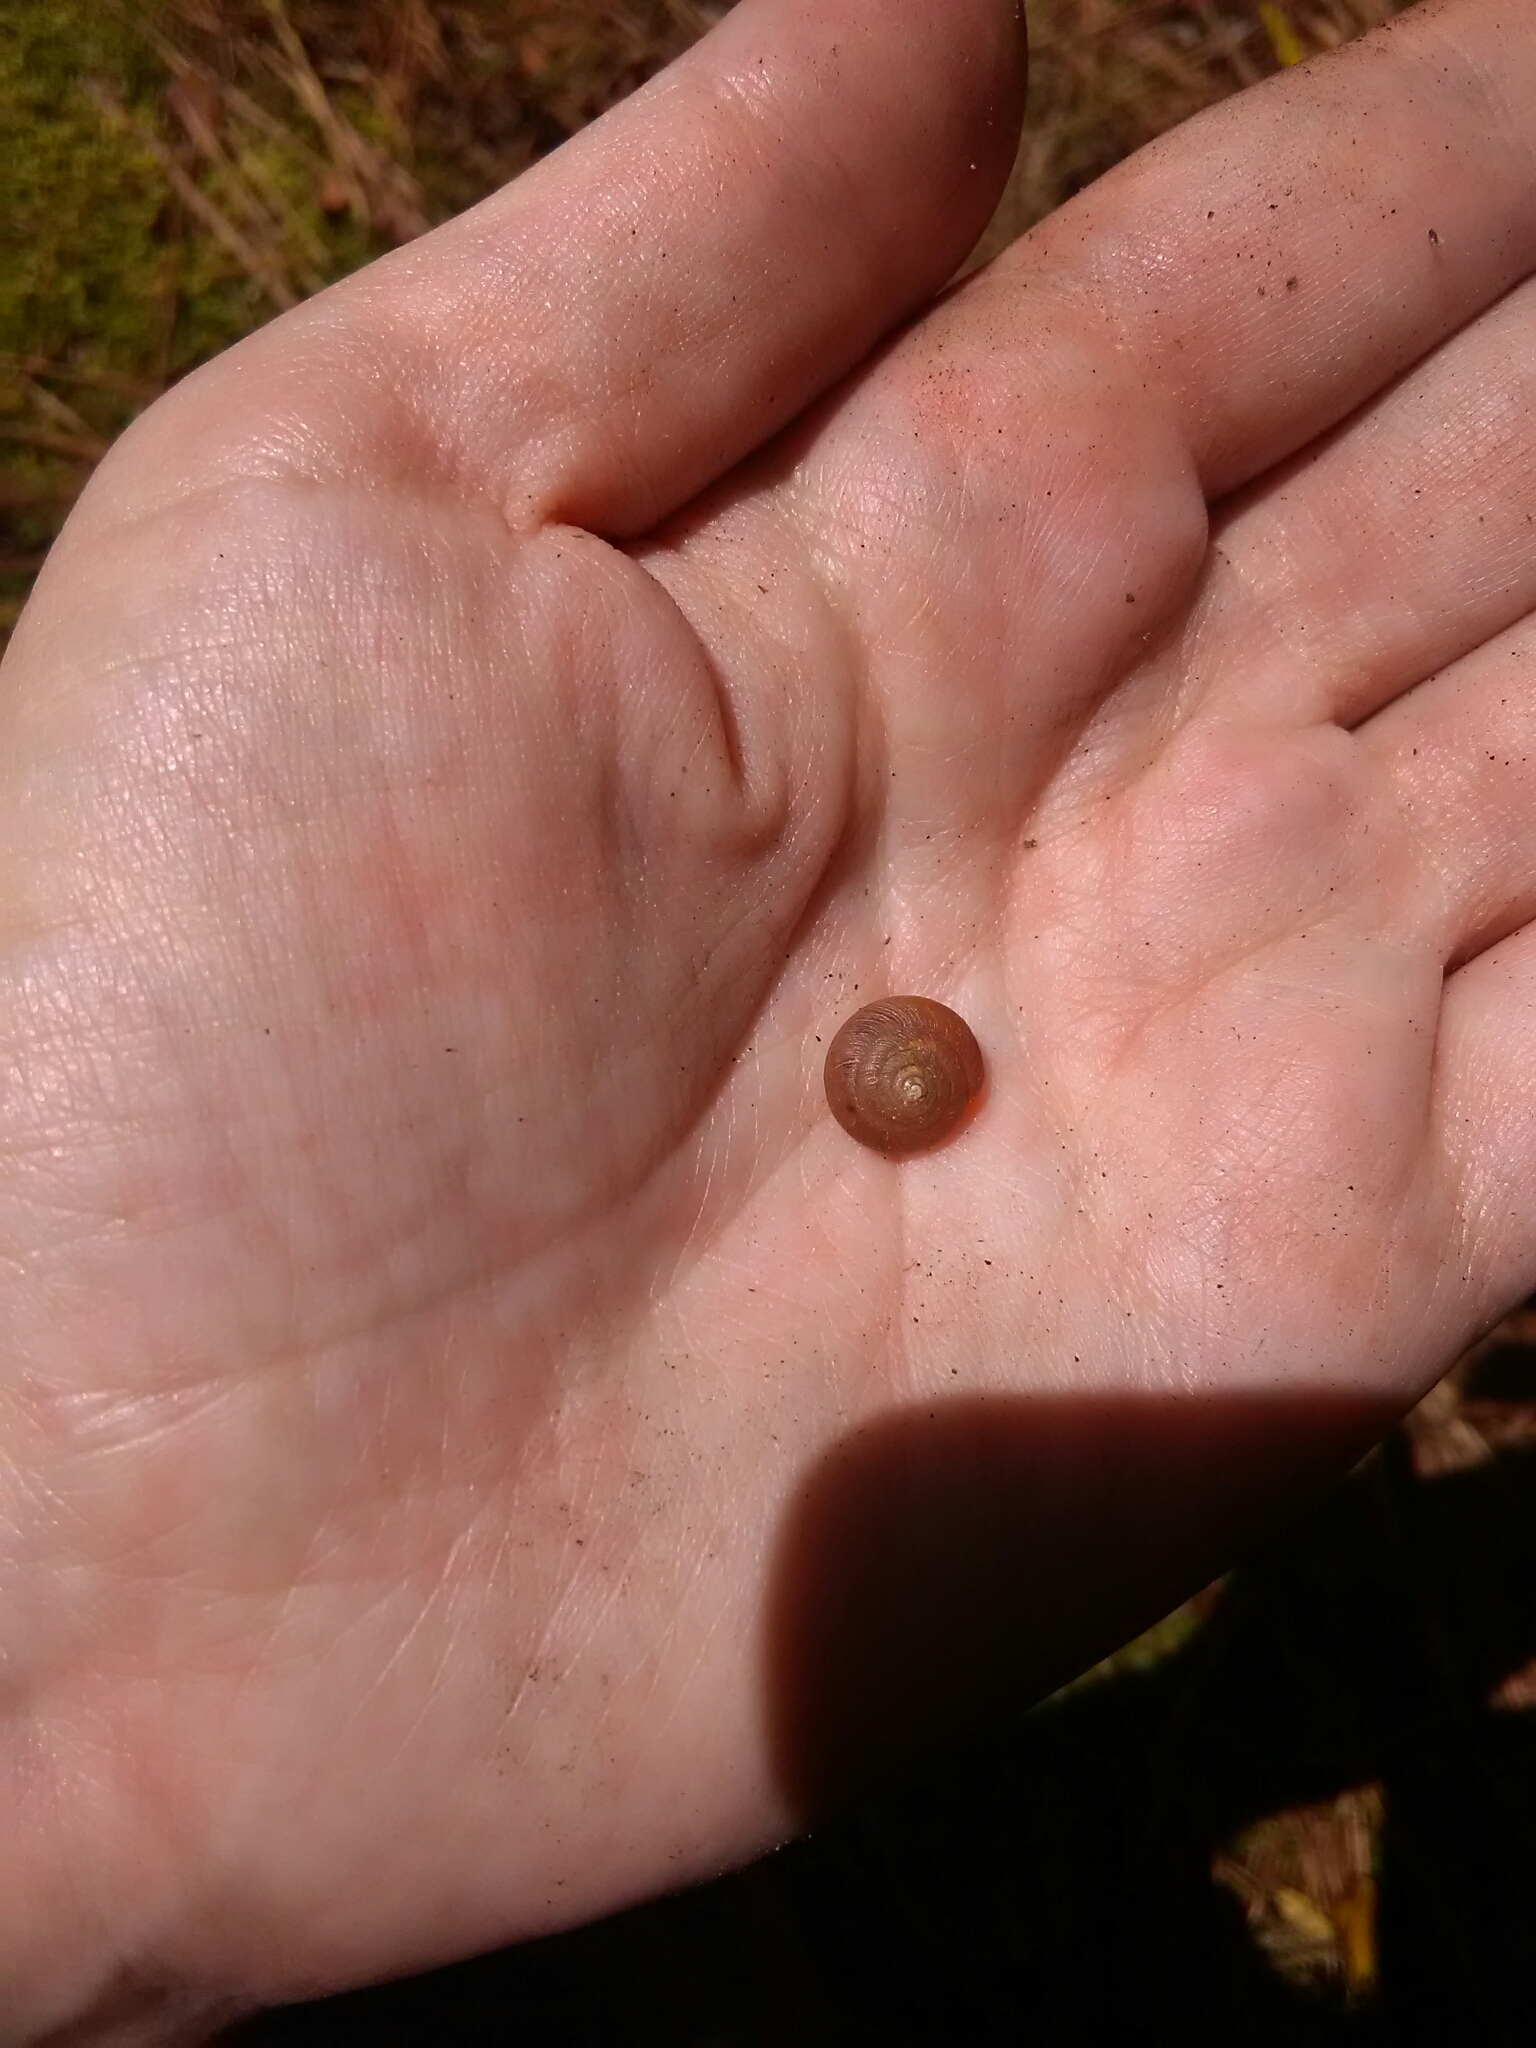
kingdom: Animalia
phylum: Mollusca
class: Gastropoda
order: Stylommatophora
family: Gastrodontidae
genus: Ventridens
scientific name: Ventridens intertextus
